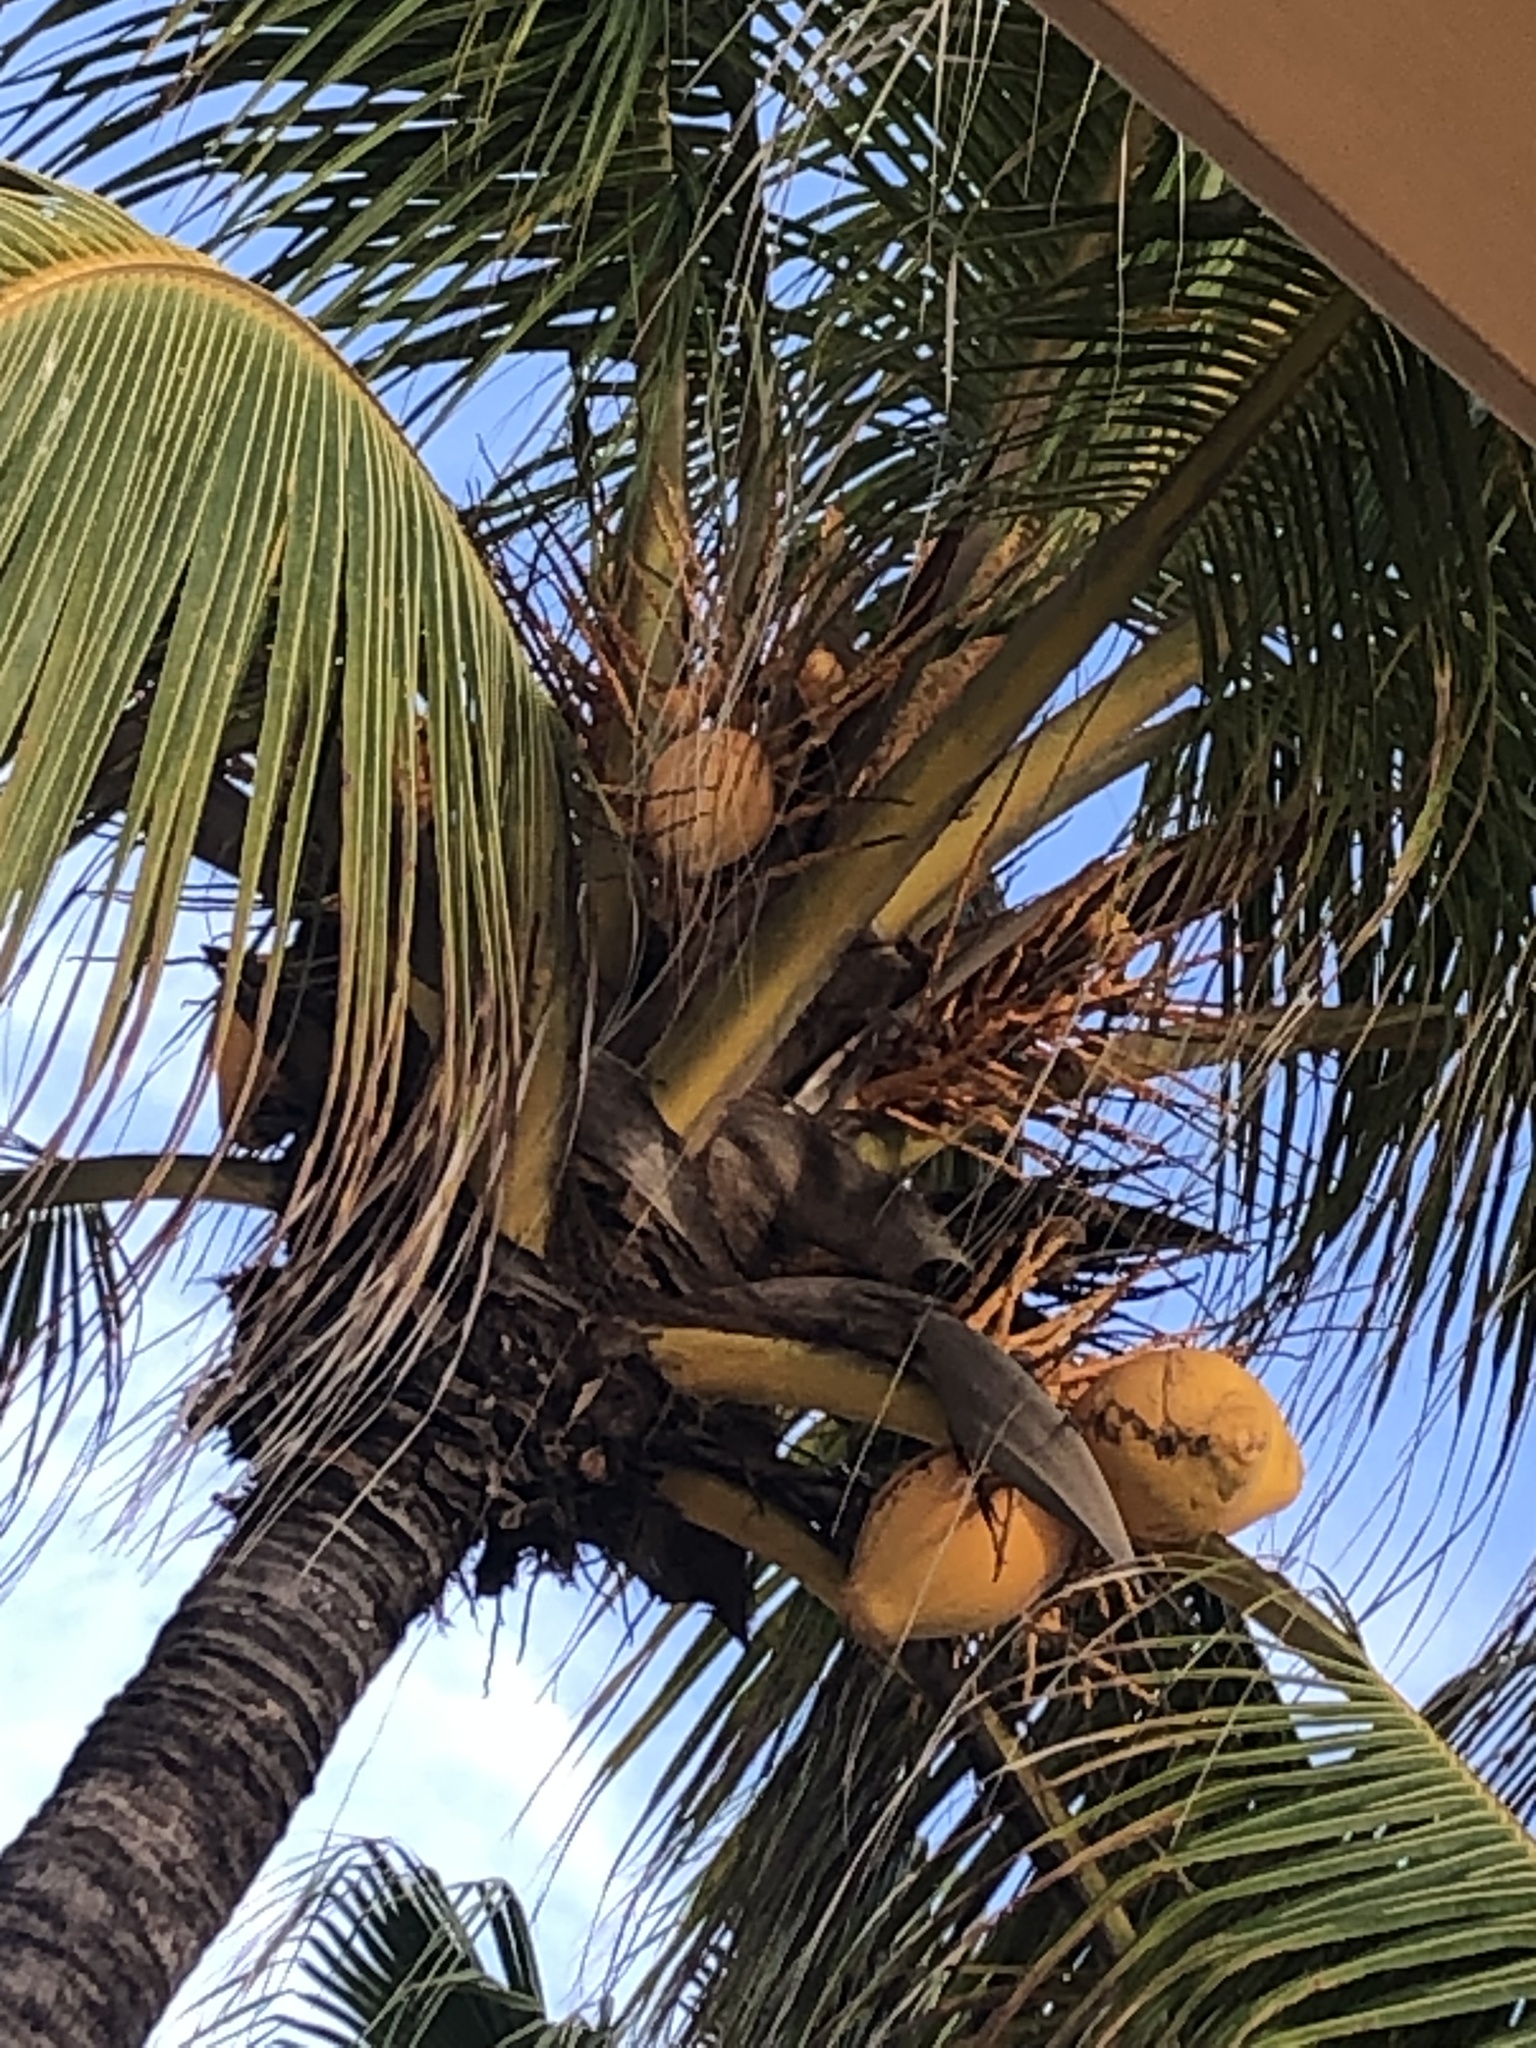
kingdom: Plantae
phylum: Tracheophyta
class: Liliopsida
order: Arecales
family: Arecaceae
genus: Cocos
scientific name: Cocos nucifera
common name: Coconut palm
